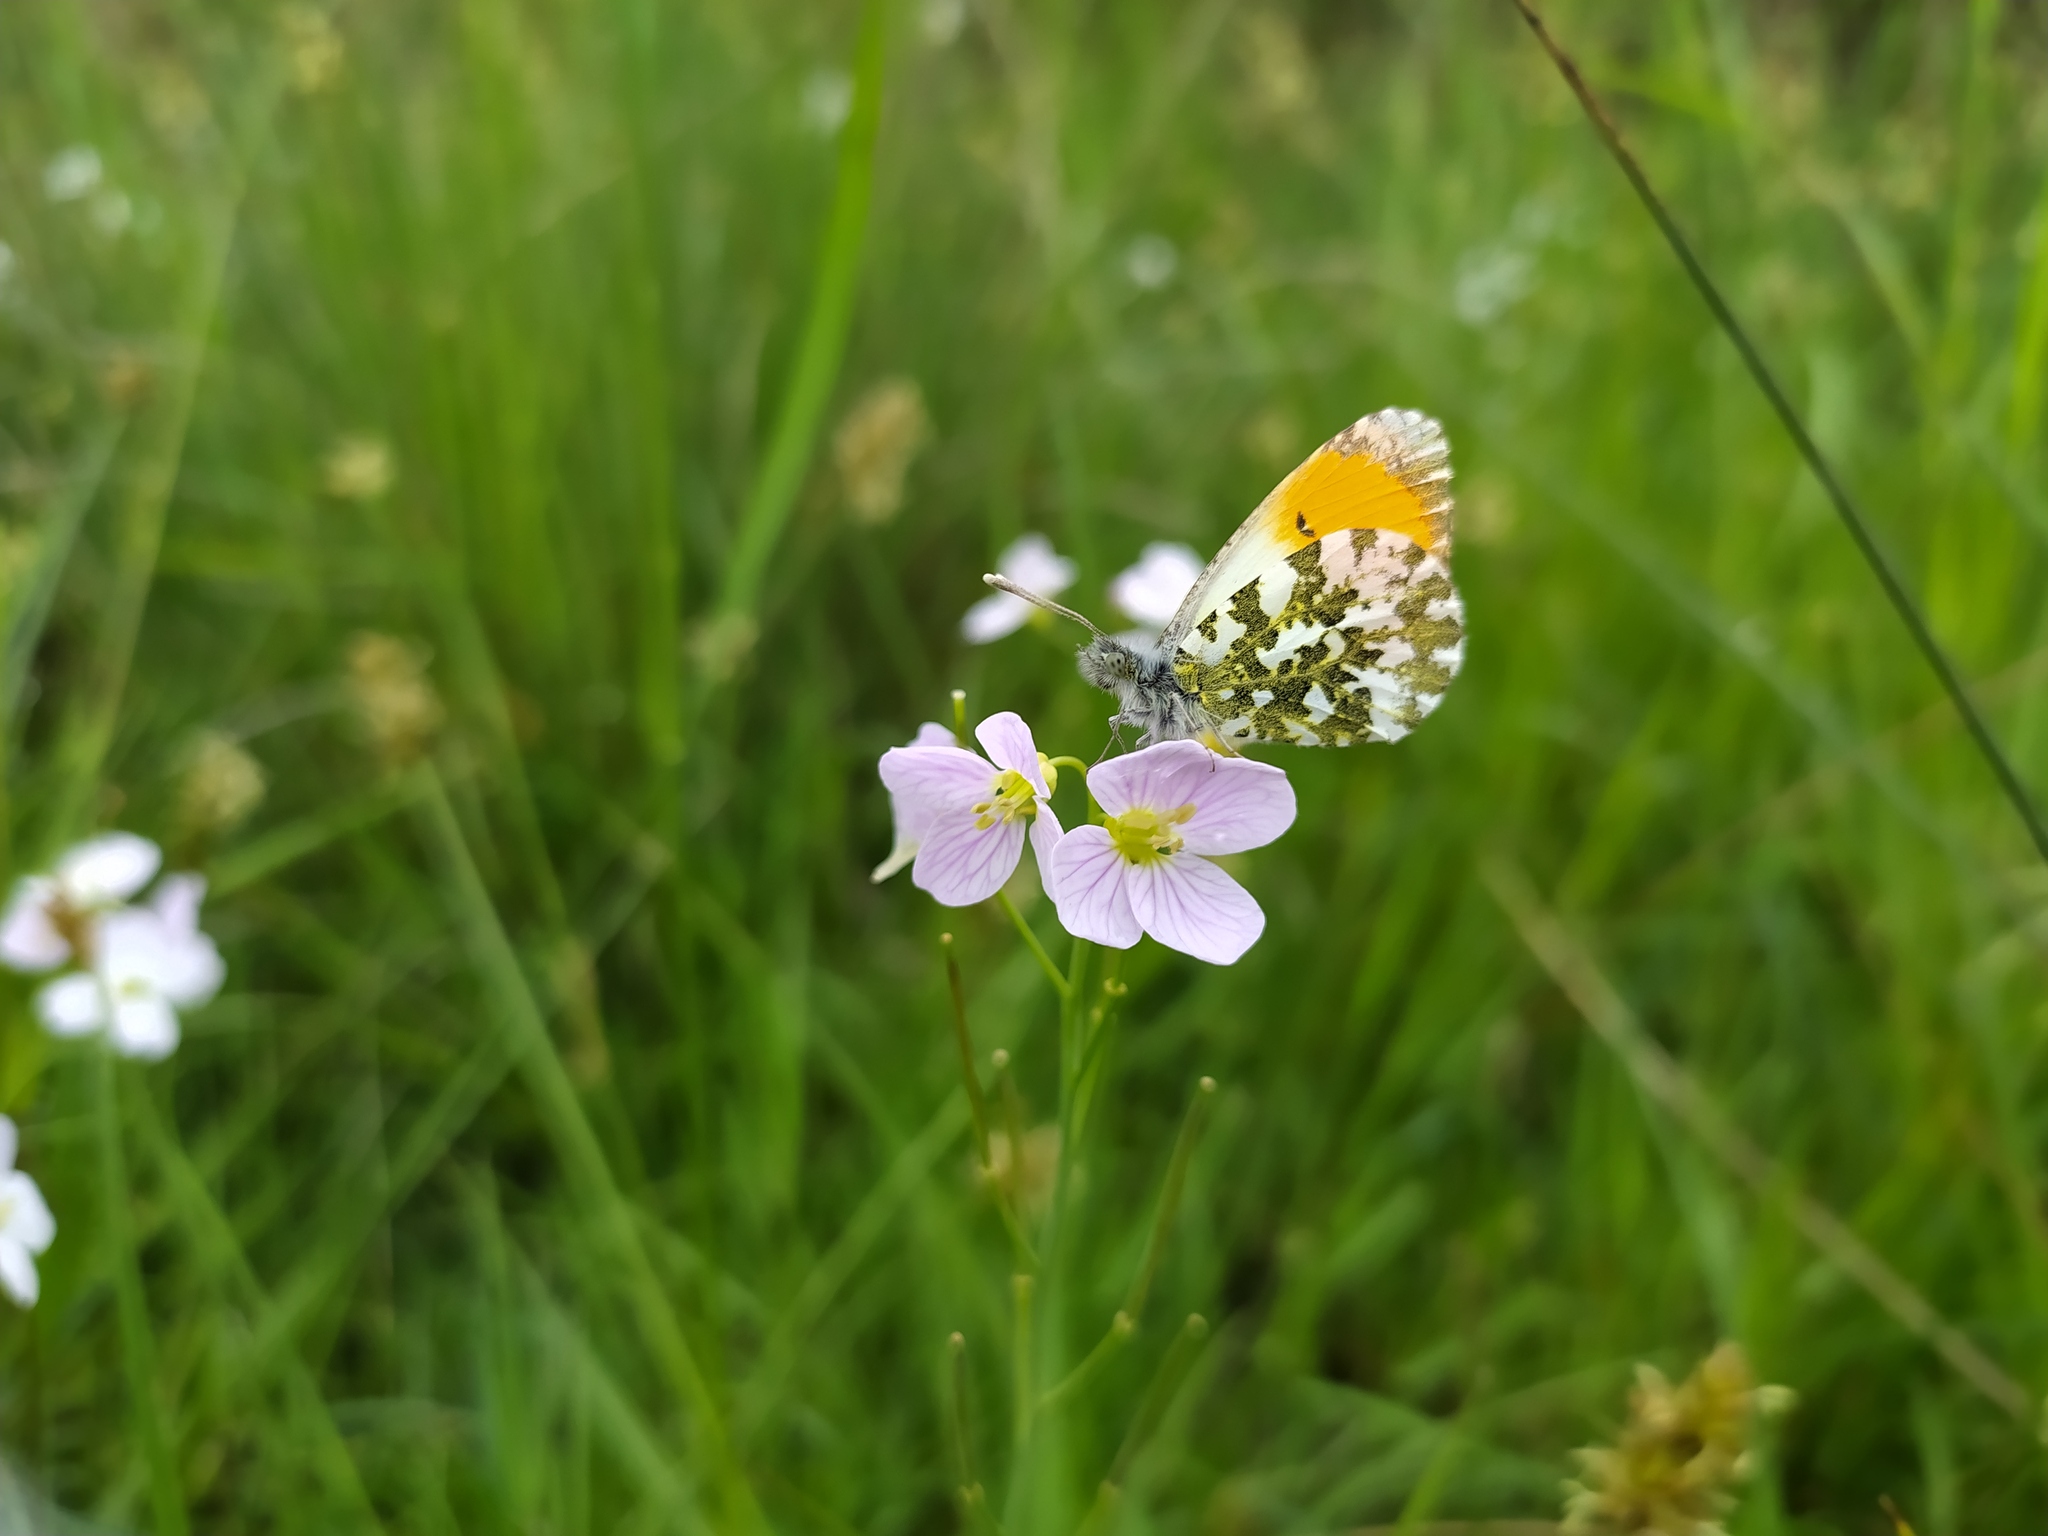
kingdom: Animalia
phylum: Arthropoda
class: Insecta
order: Lepidoptera
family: Pieridae
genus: Anthocharis
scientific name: Anthocharis cardamines
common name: Orange-tip
